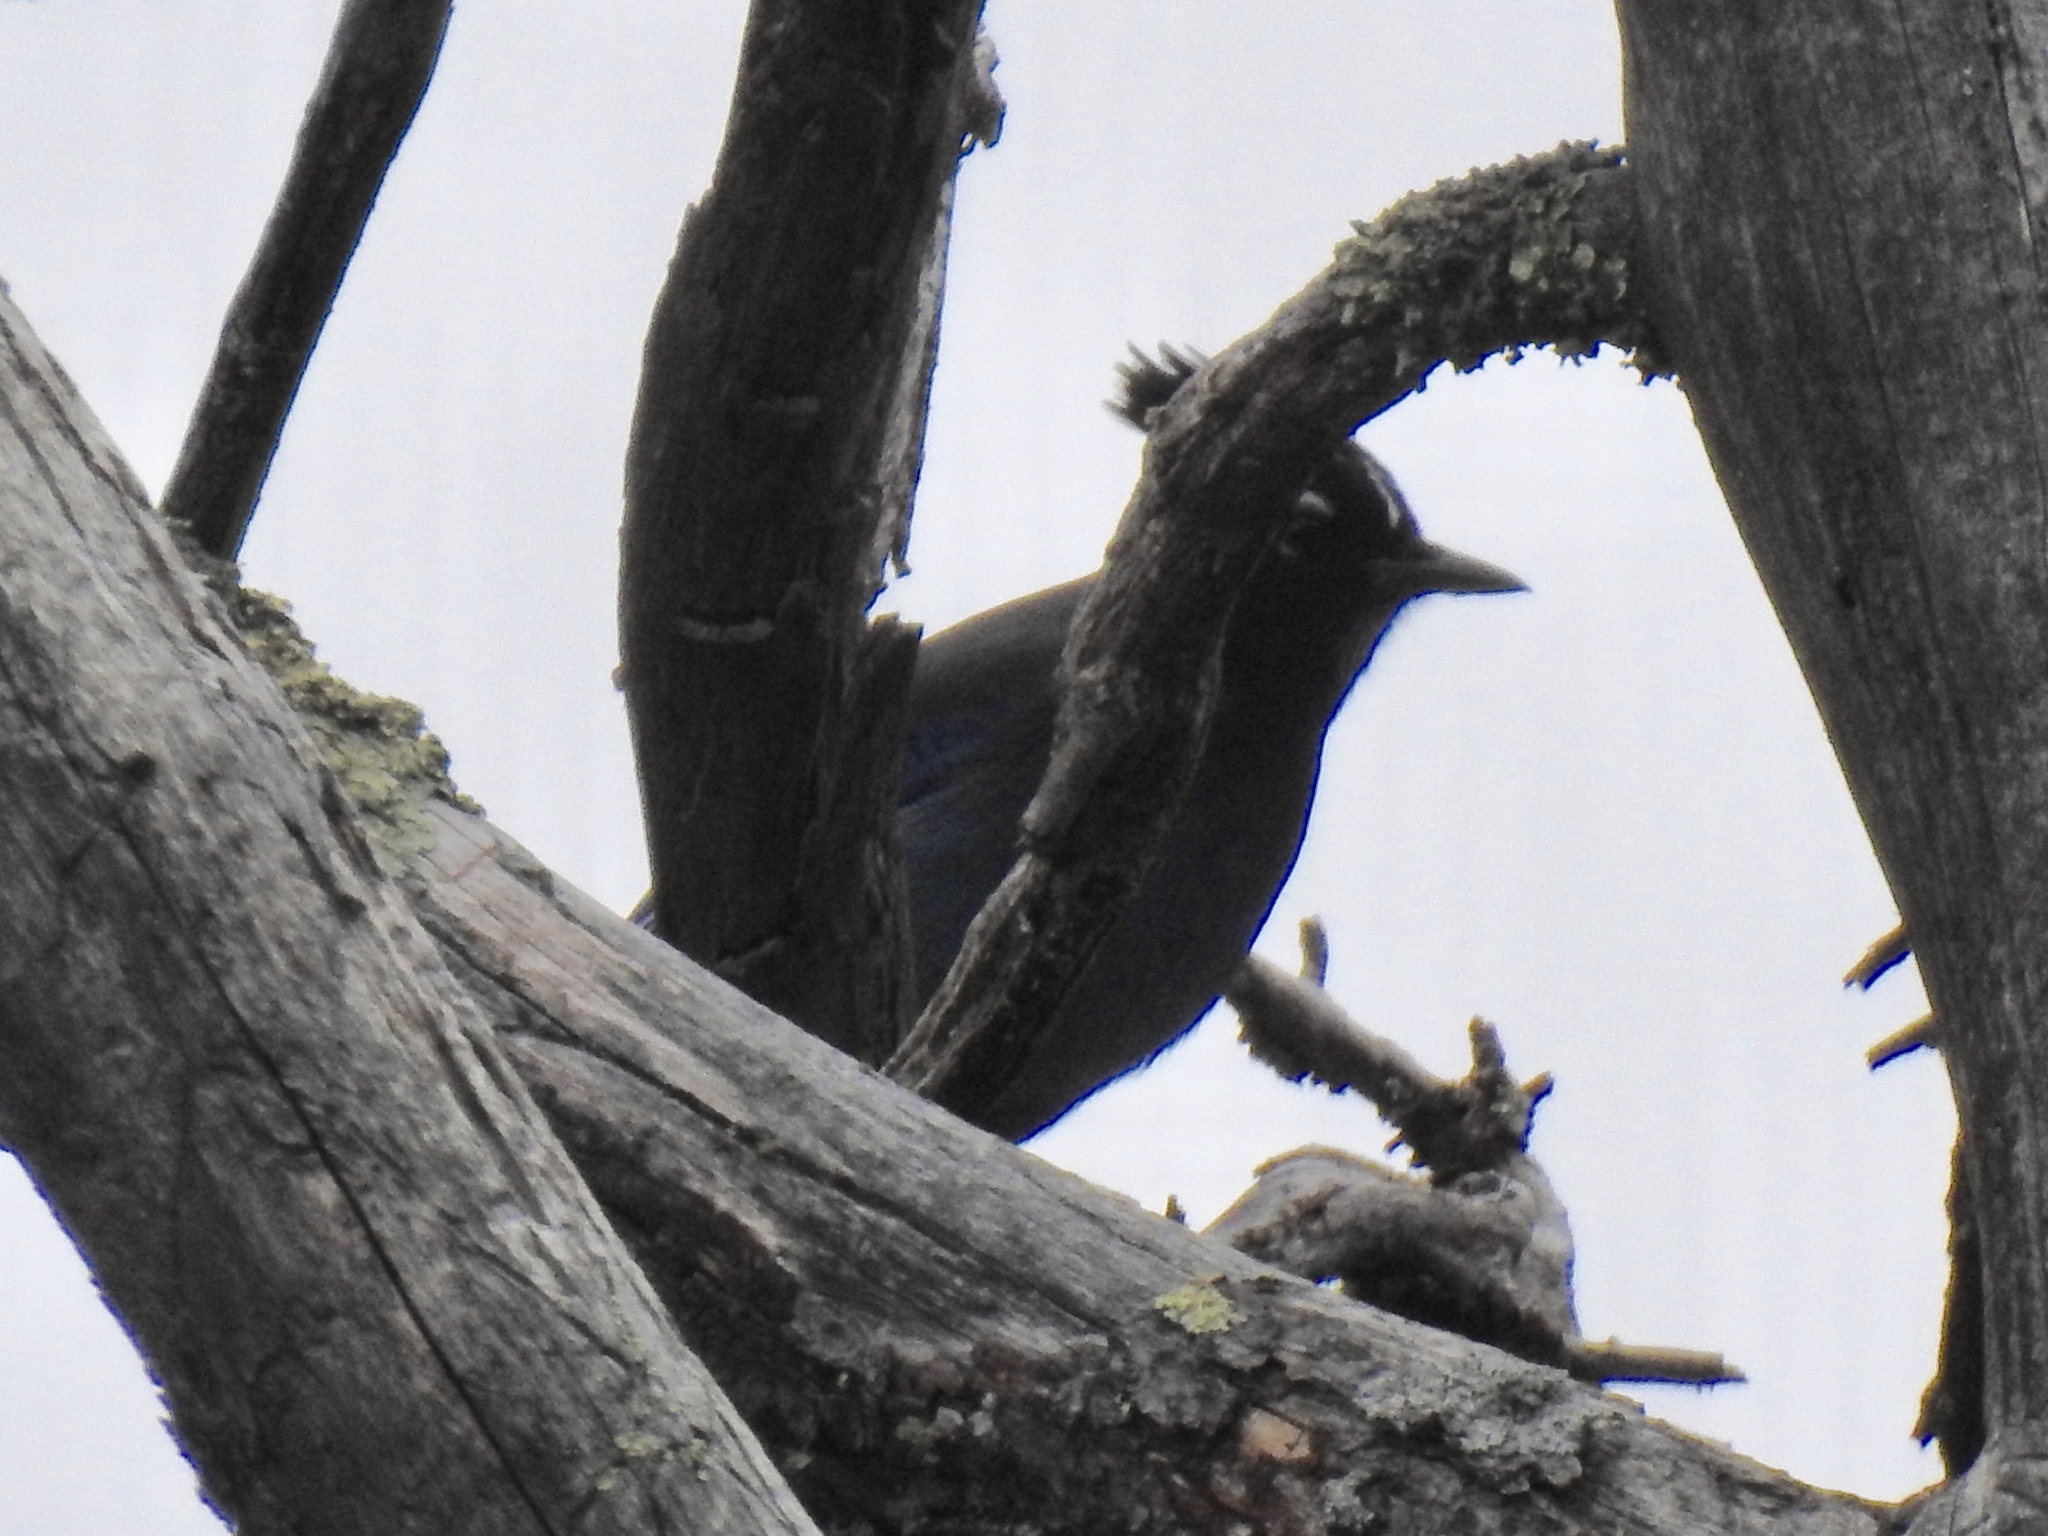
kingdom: Animalia
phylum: Chordata
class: Aves
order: Passeriformes
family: Corvidae
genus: Cyanocitta
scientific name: Cyanocitta stelleri
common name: Steller's jay
